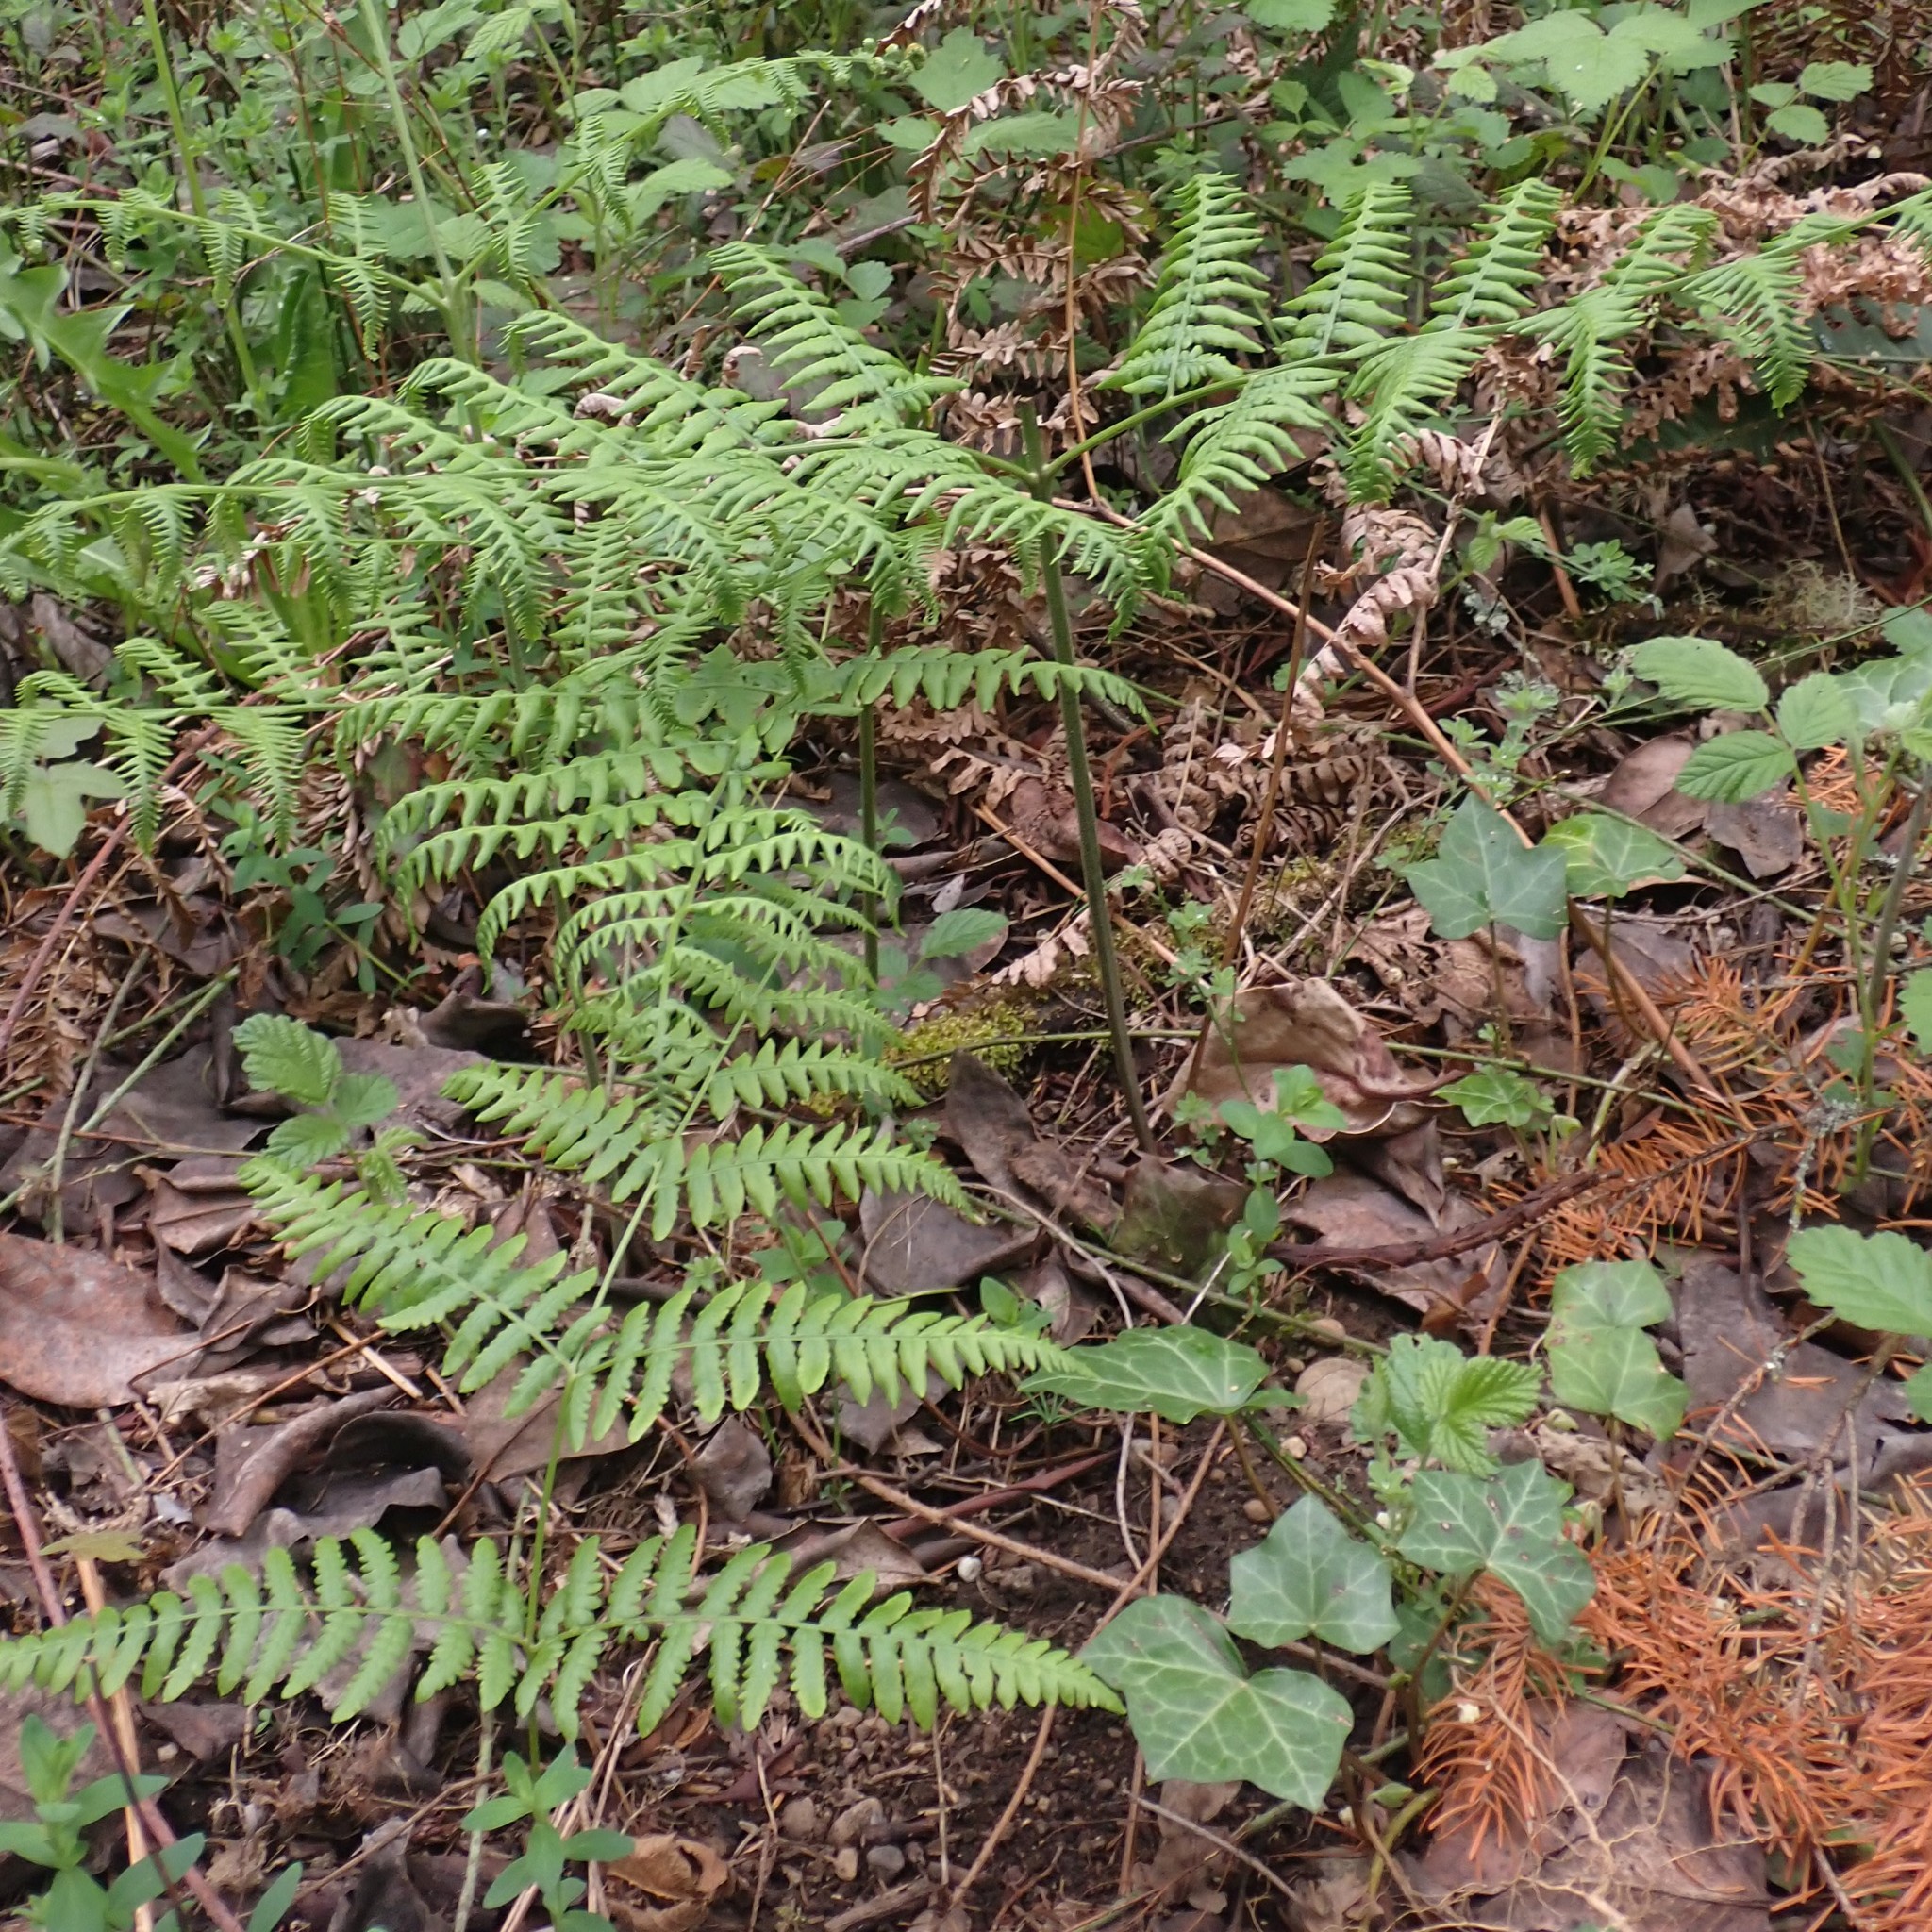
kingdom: Plantae
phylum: Tracheophyta
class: Polypodiopsida
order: Polypodiales
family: Dennstaedtiaceae
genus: Pteridium
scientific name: Pteridium aquilinum
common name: Bracken
